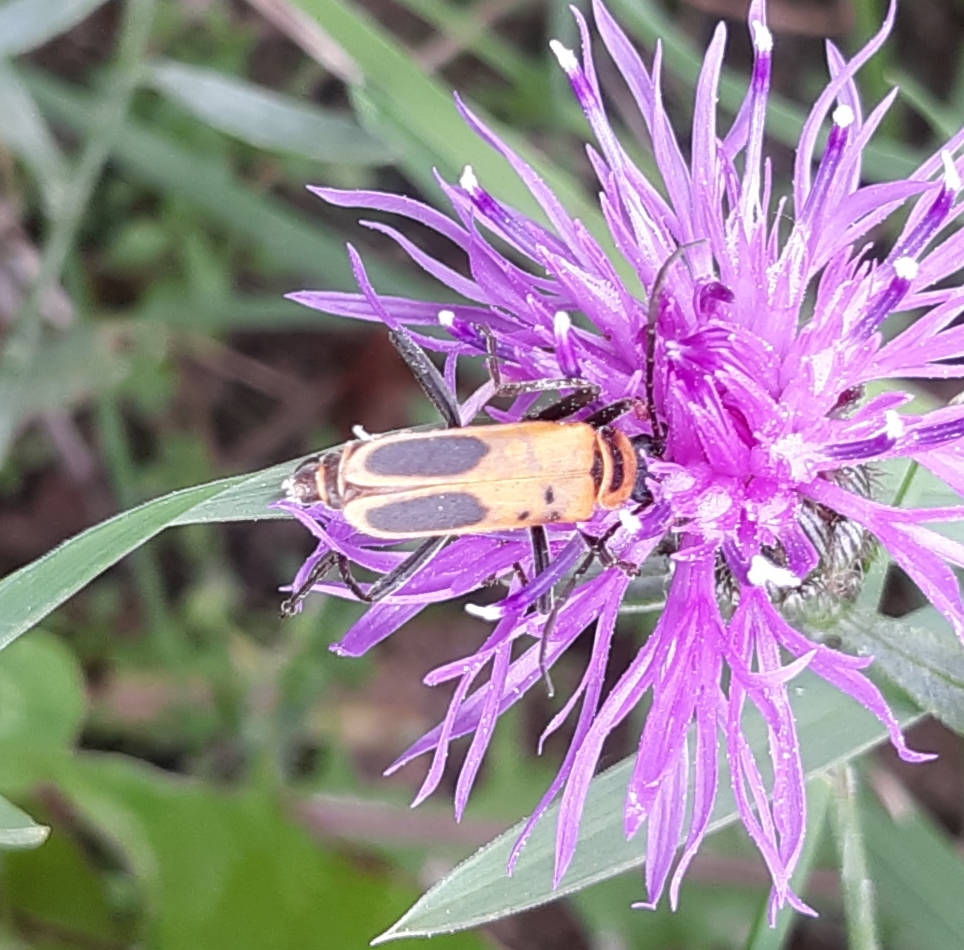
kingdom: Animalia
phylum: Arthropoda
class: Insecta
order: Coleoptera
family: Cantharidae
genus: Chauliognathus
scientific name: Chauliognathus pensylvanicus
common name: Goldenrod soldier beetle
